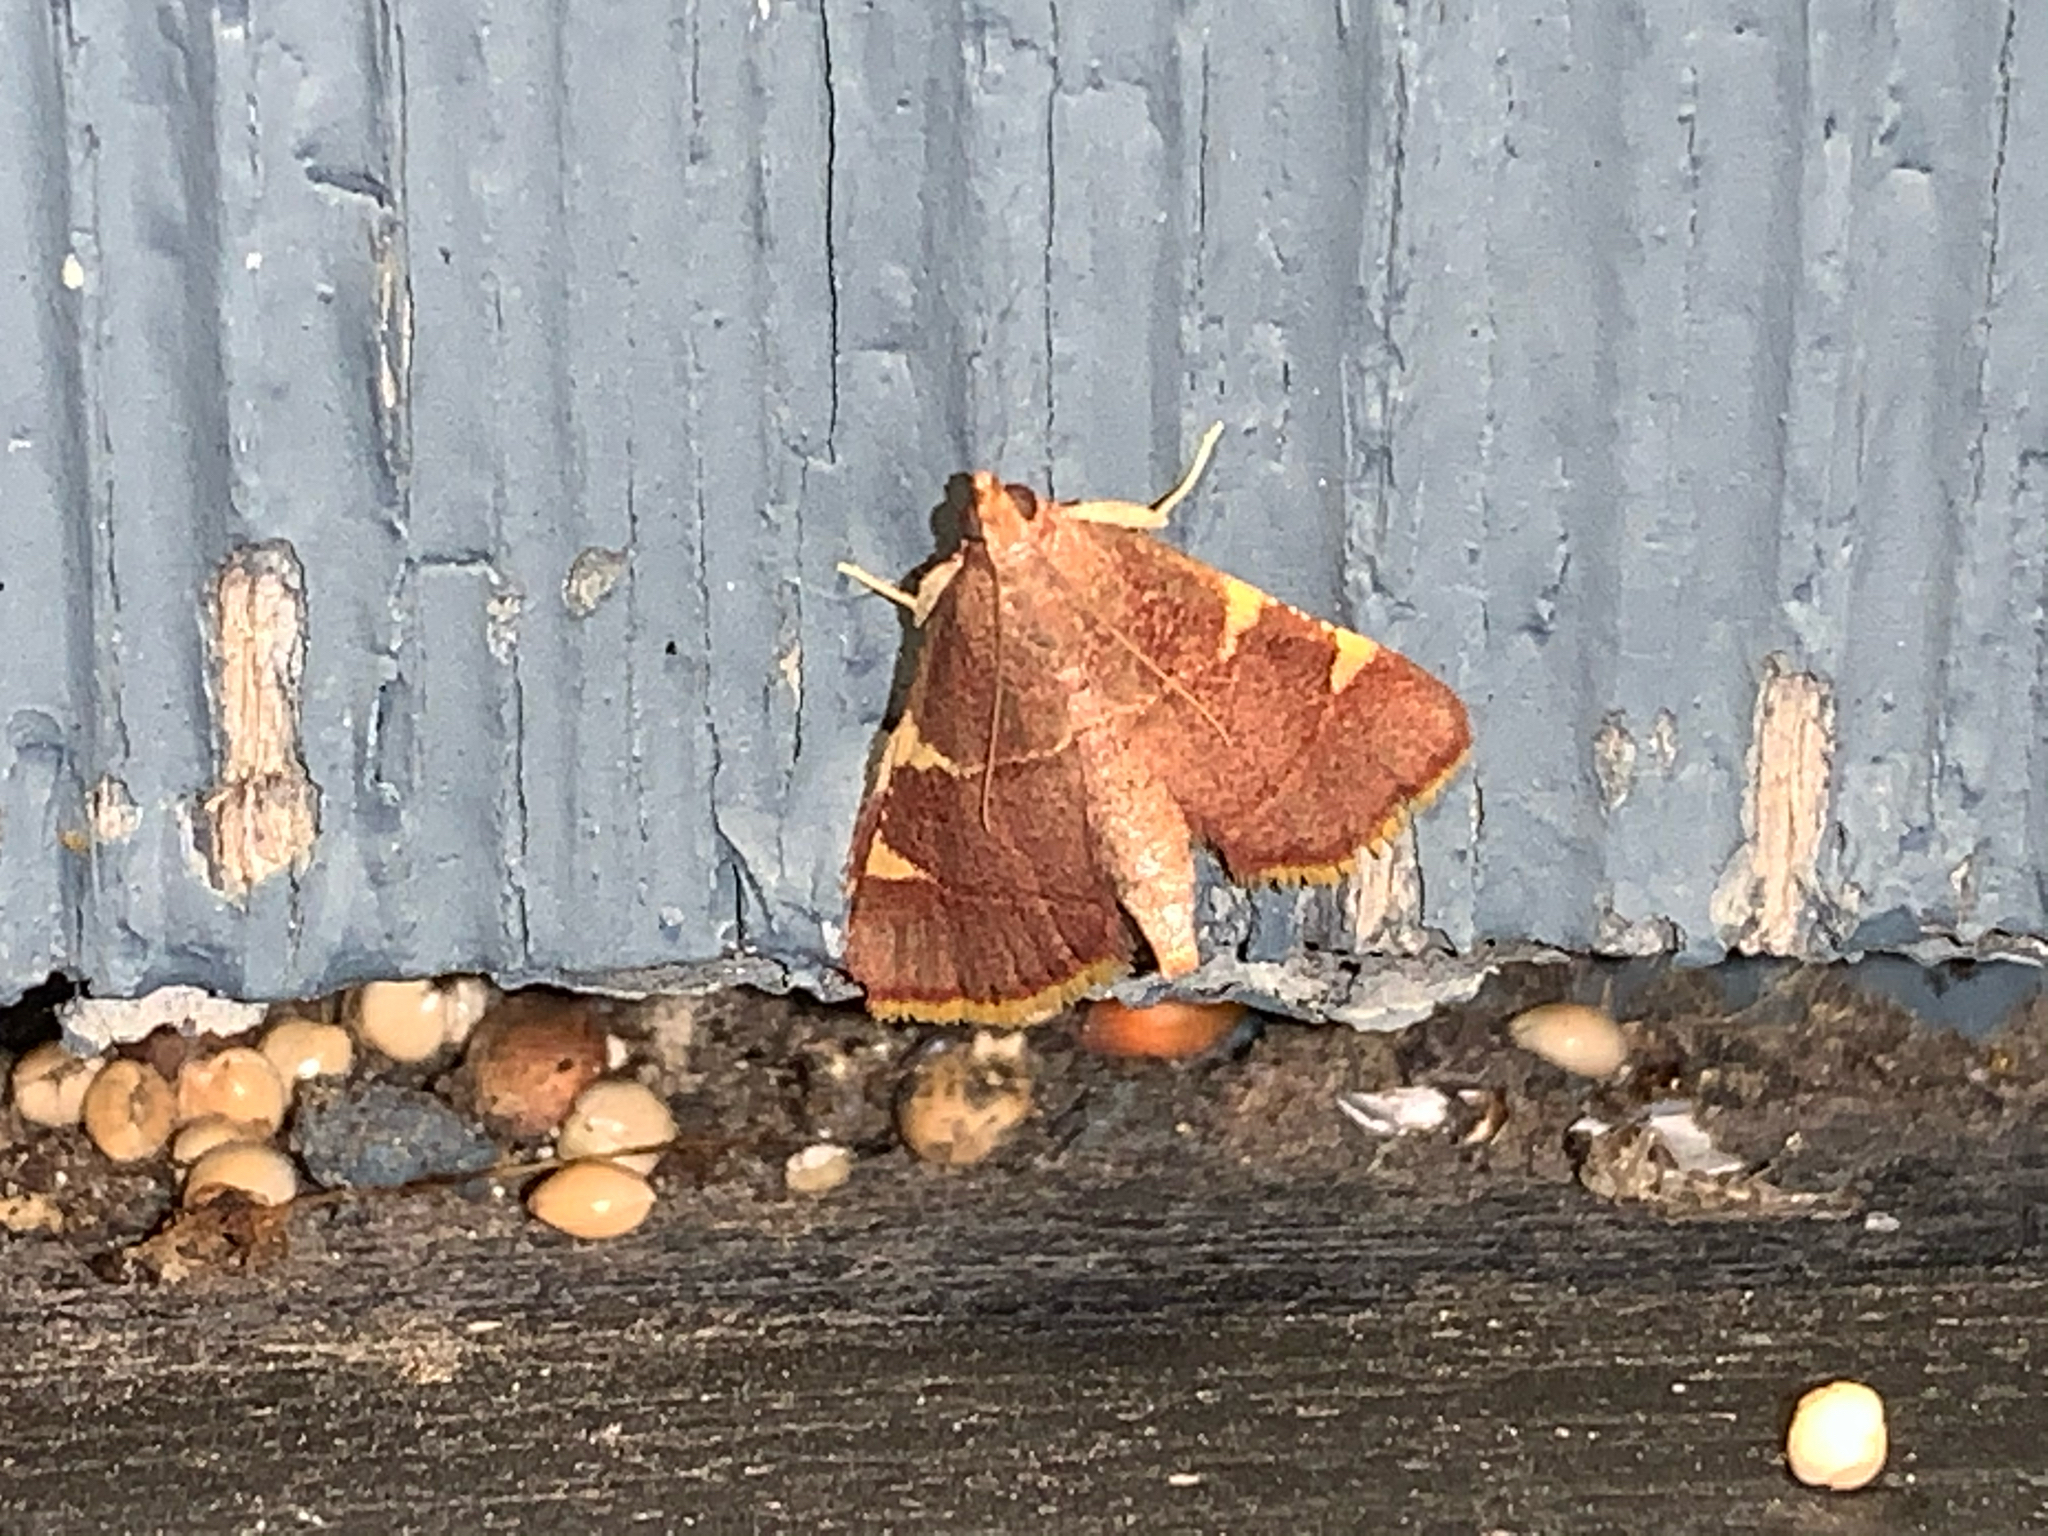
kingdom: Animalia
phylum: Arthropoda
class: Insecta
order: Lepidoptera
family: Pyralidae
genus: Hypsopygia
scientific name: Hypsopygia olinalis
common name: Yellow-fringed dolichomia moth
